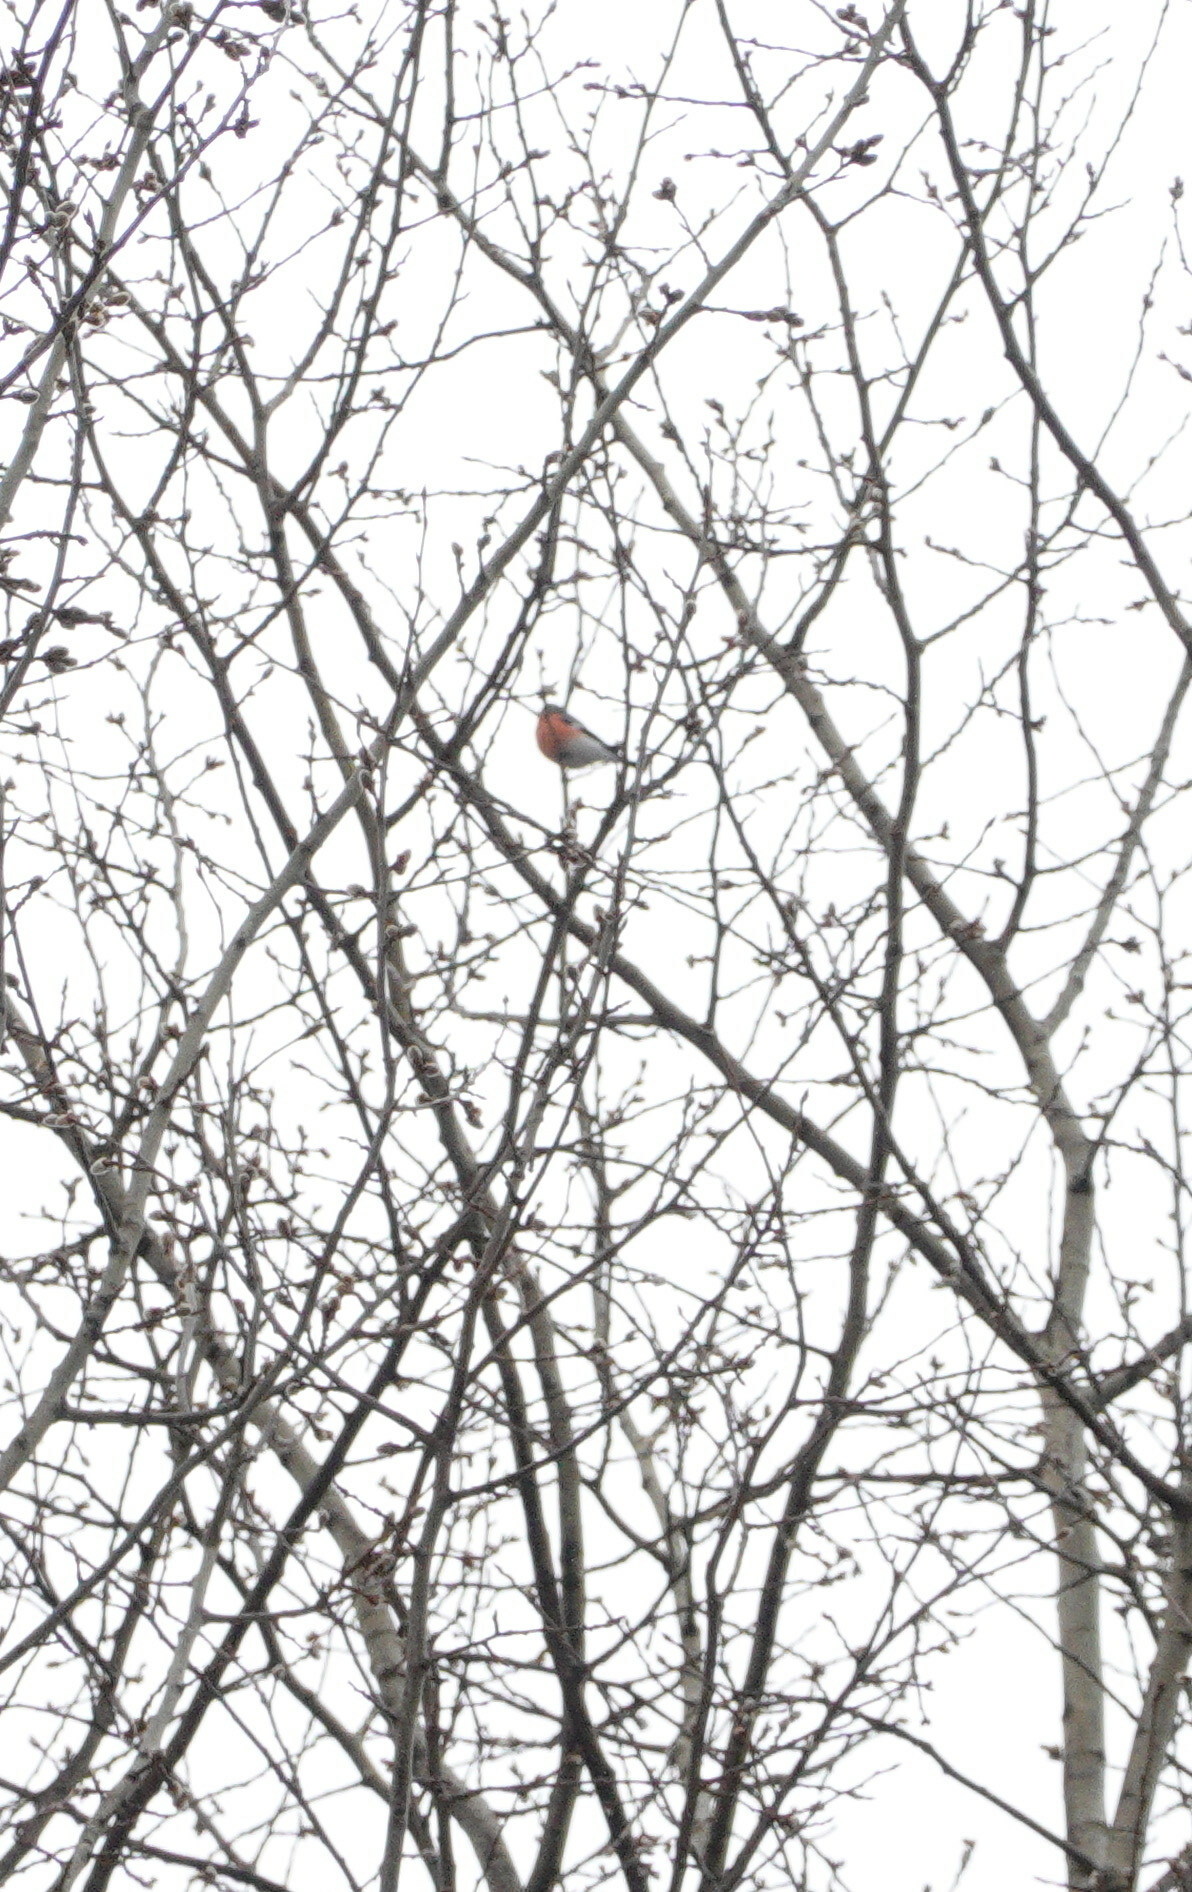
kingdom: Animalia
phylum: Chordata
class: Aves
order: Passeriformes
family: Fringillidae
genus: Pyrrhula
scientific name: Pyrrhula pyrrhula
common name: Eurasian bullfinch
